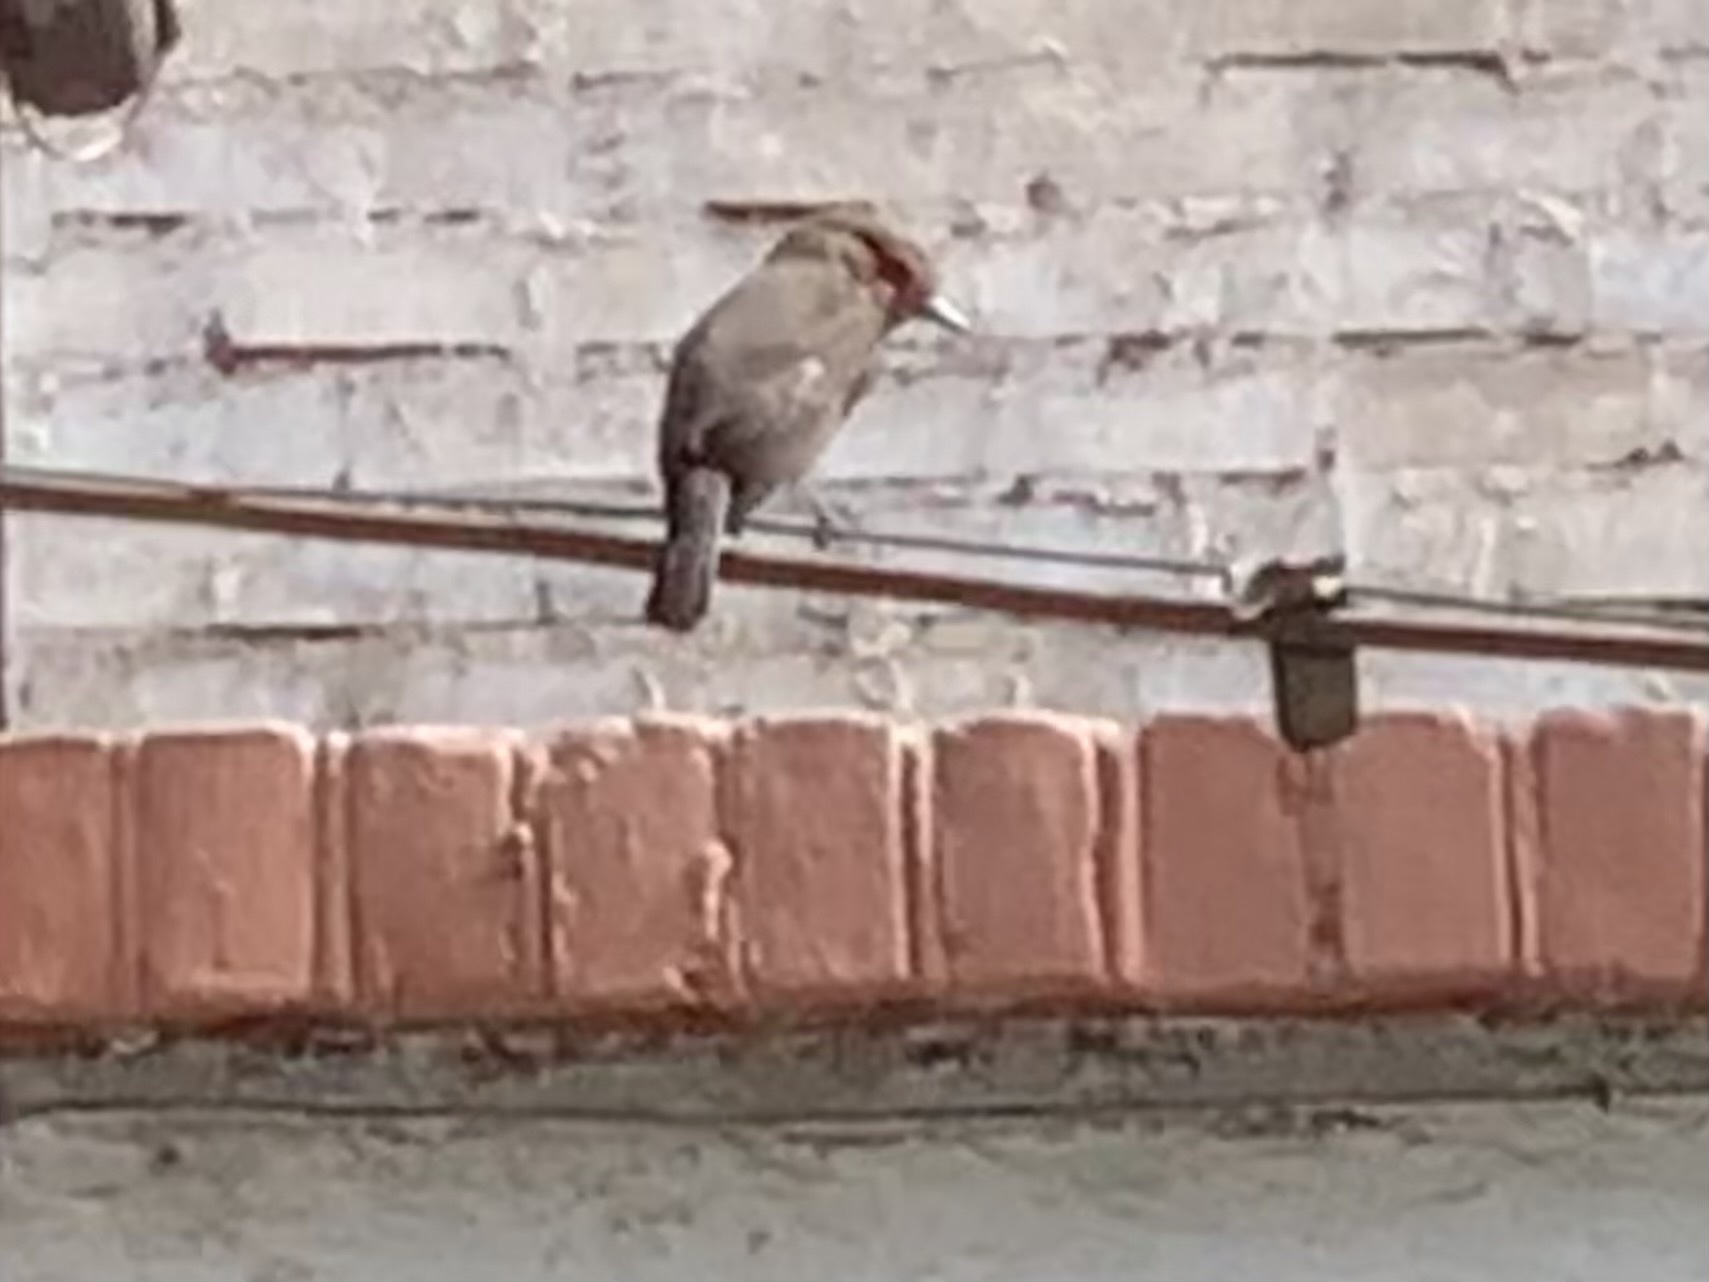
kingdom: Animalia
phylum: Chordata
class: Aves
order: Passeriformes
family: Tyrannidae
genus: Pyrocephalus
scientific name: Pyrocephalus rubinus
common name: Vermilion flycatcher
